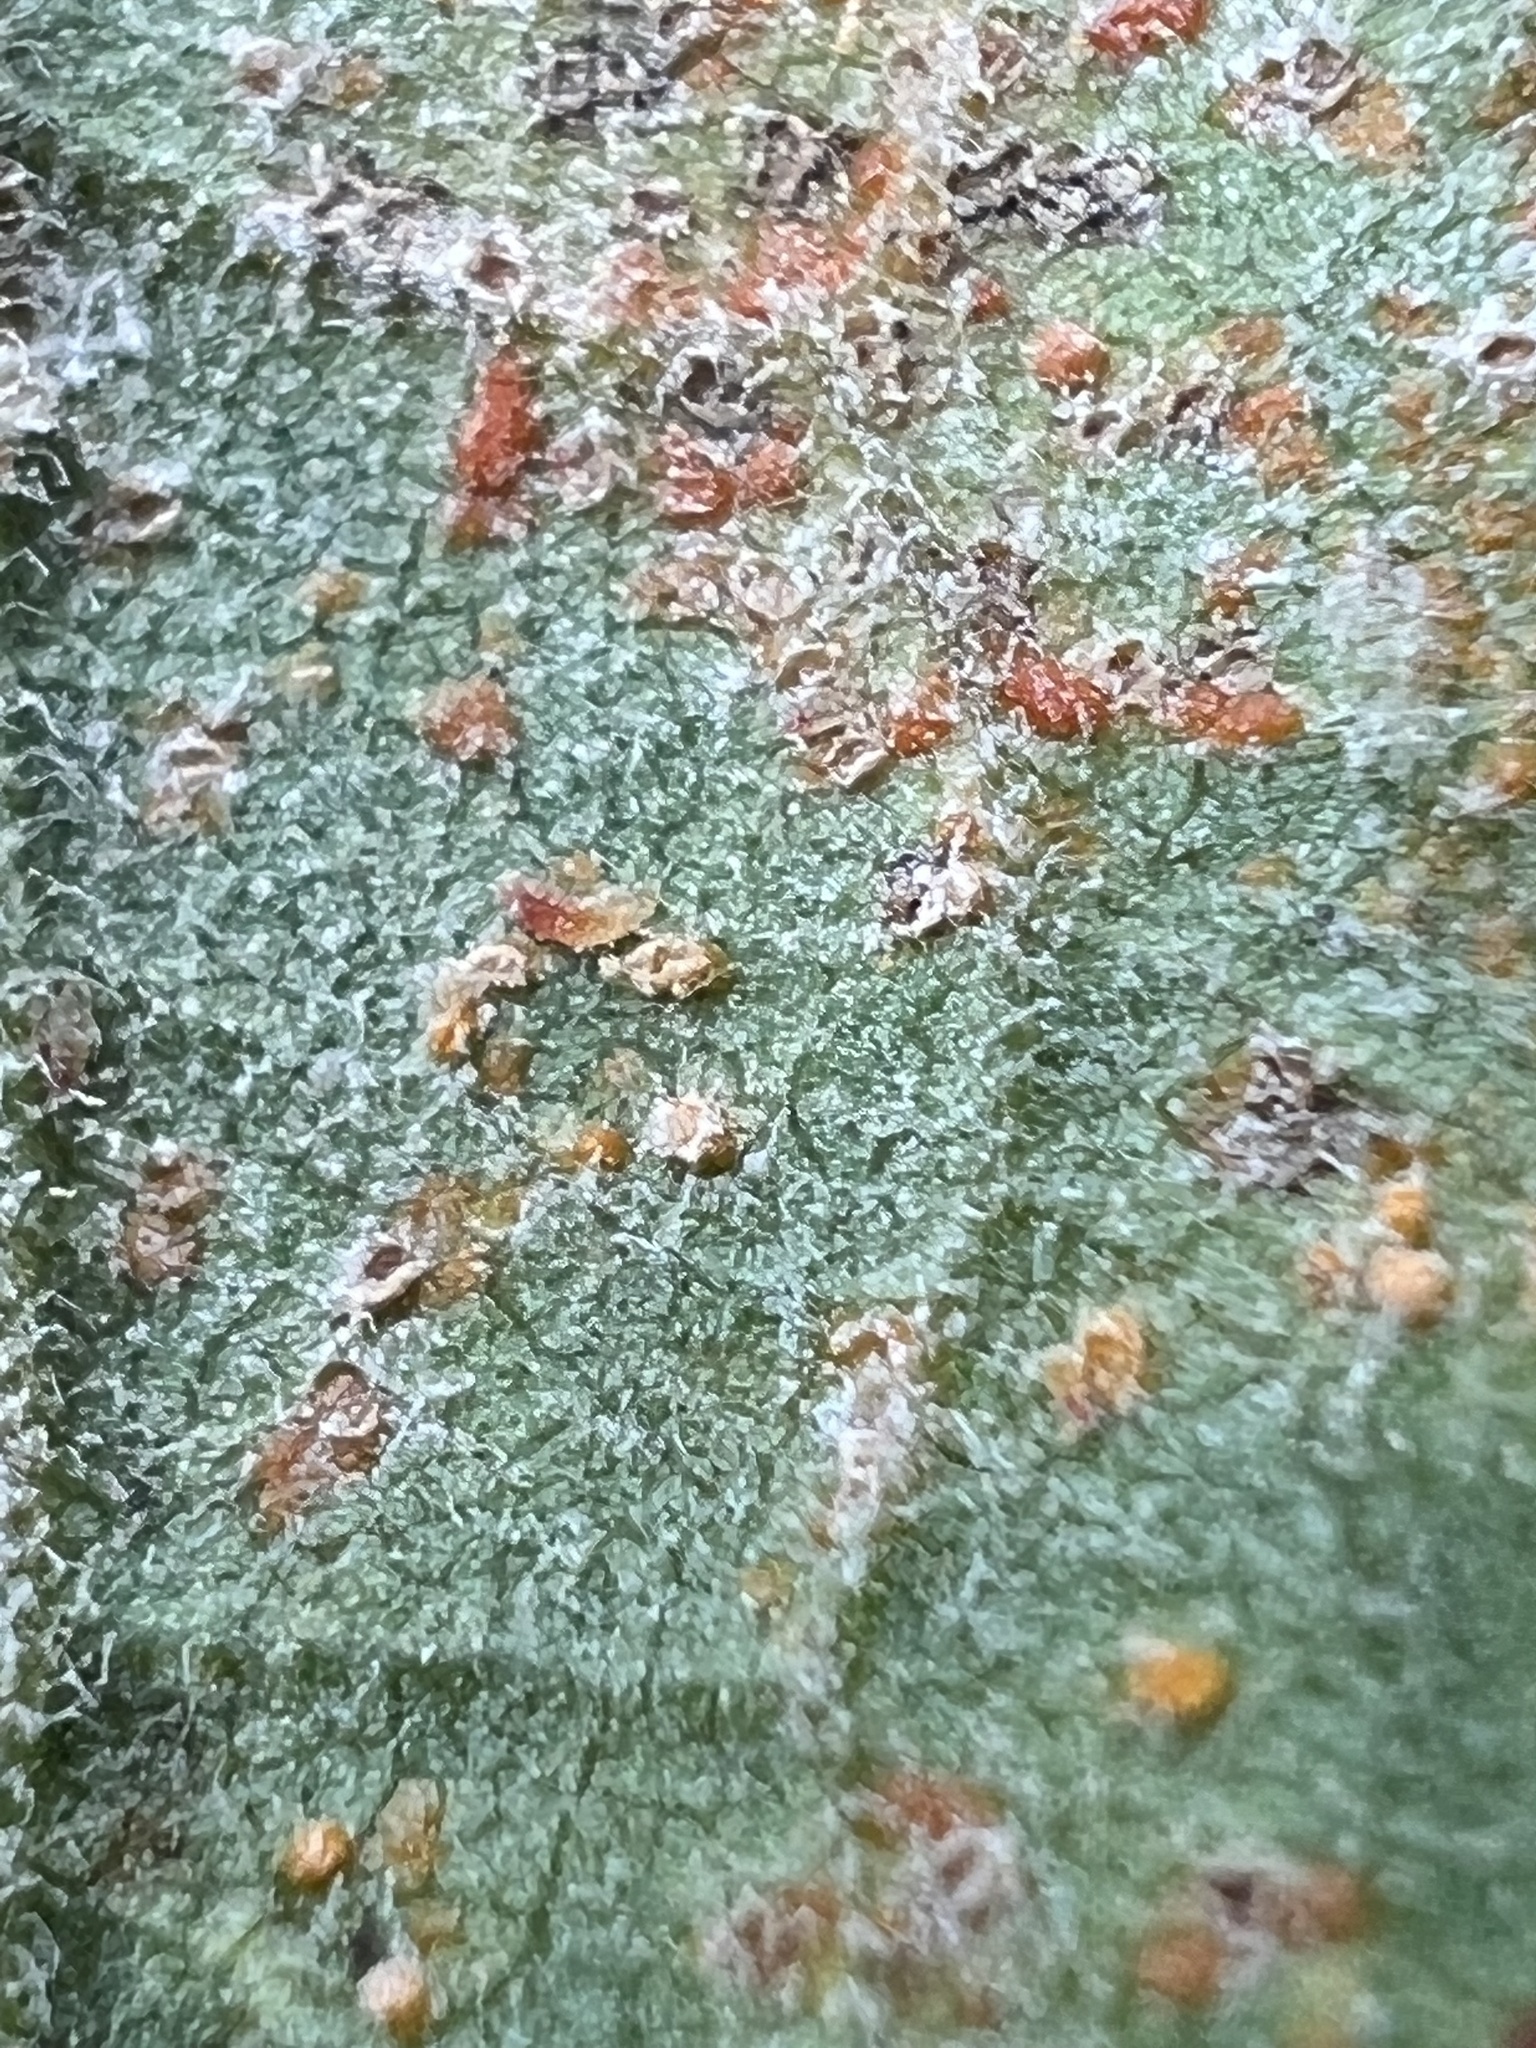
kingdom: Fungi
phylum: Basidiomycota
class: Pucciniomycetes
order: Pucciniales
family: Coleosporiaceae
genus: Coleosporium
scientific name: Coleosporium asterum
